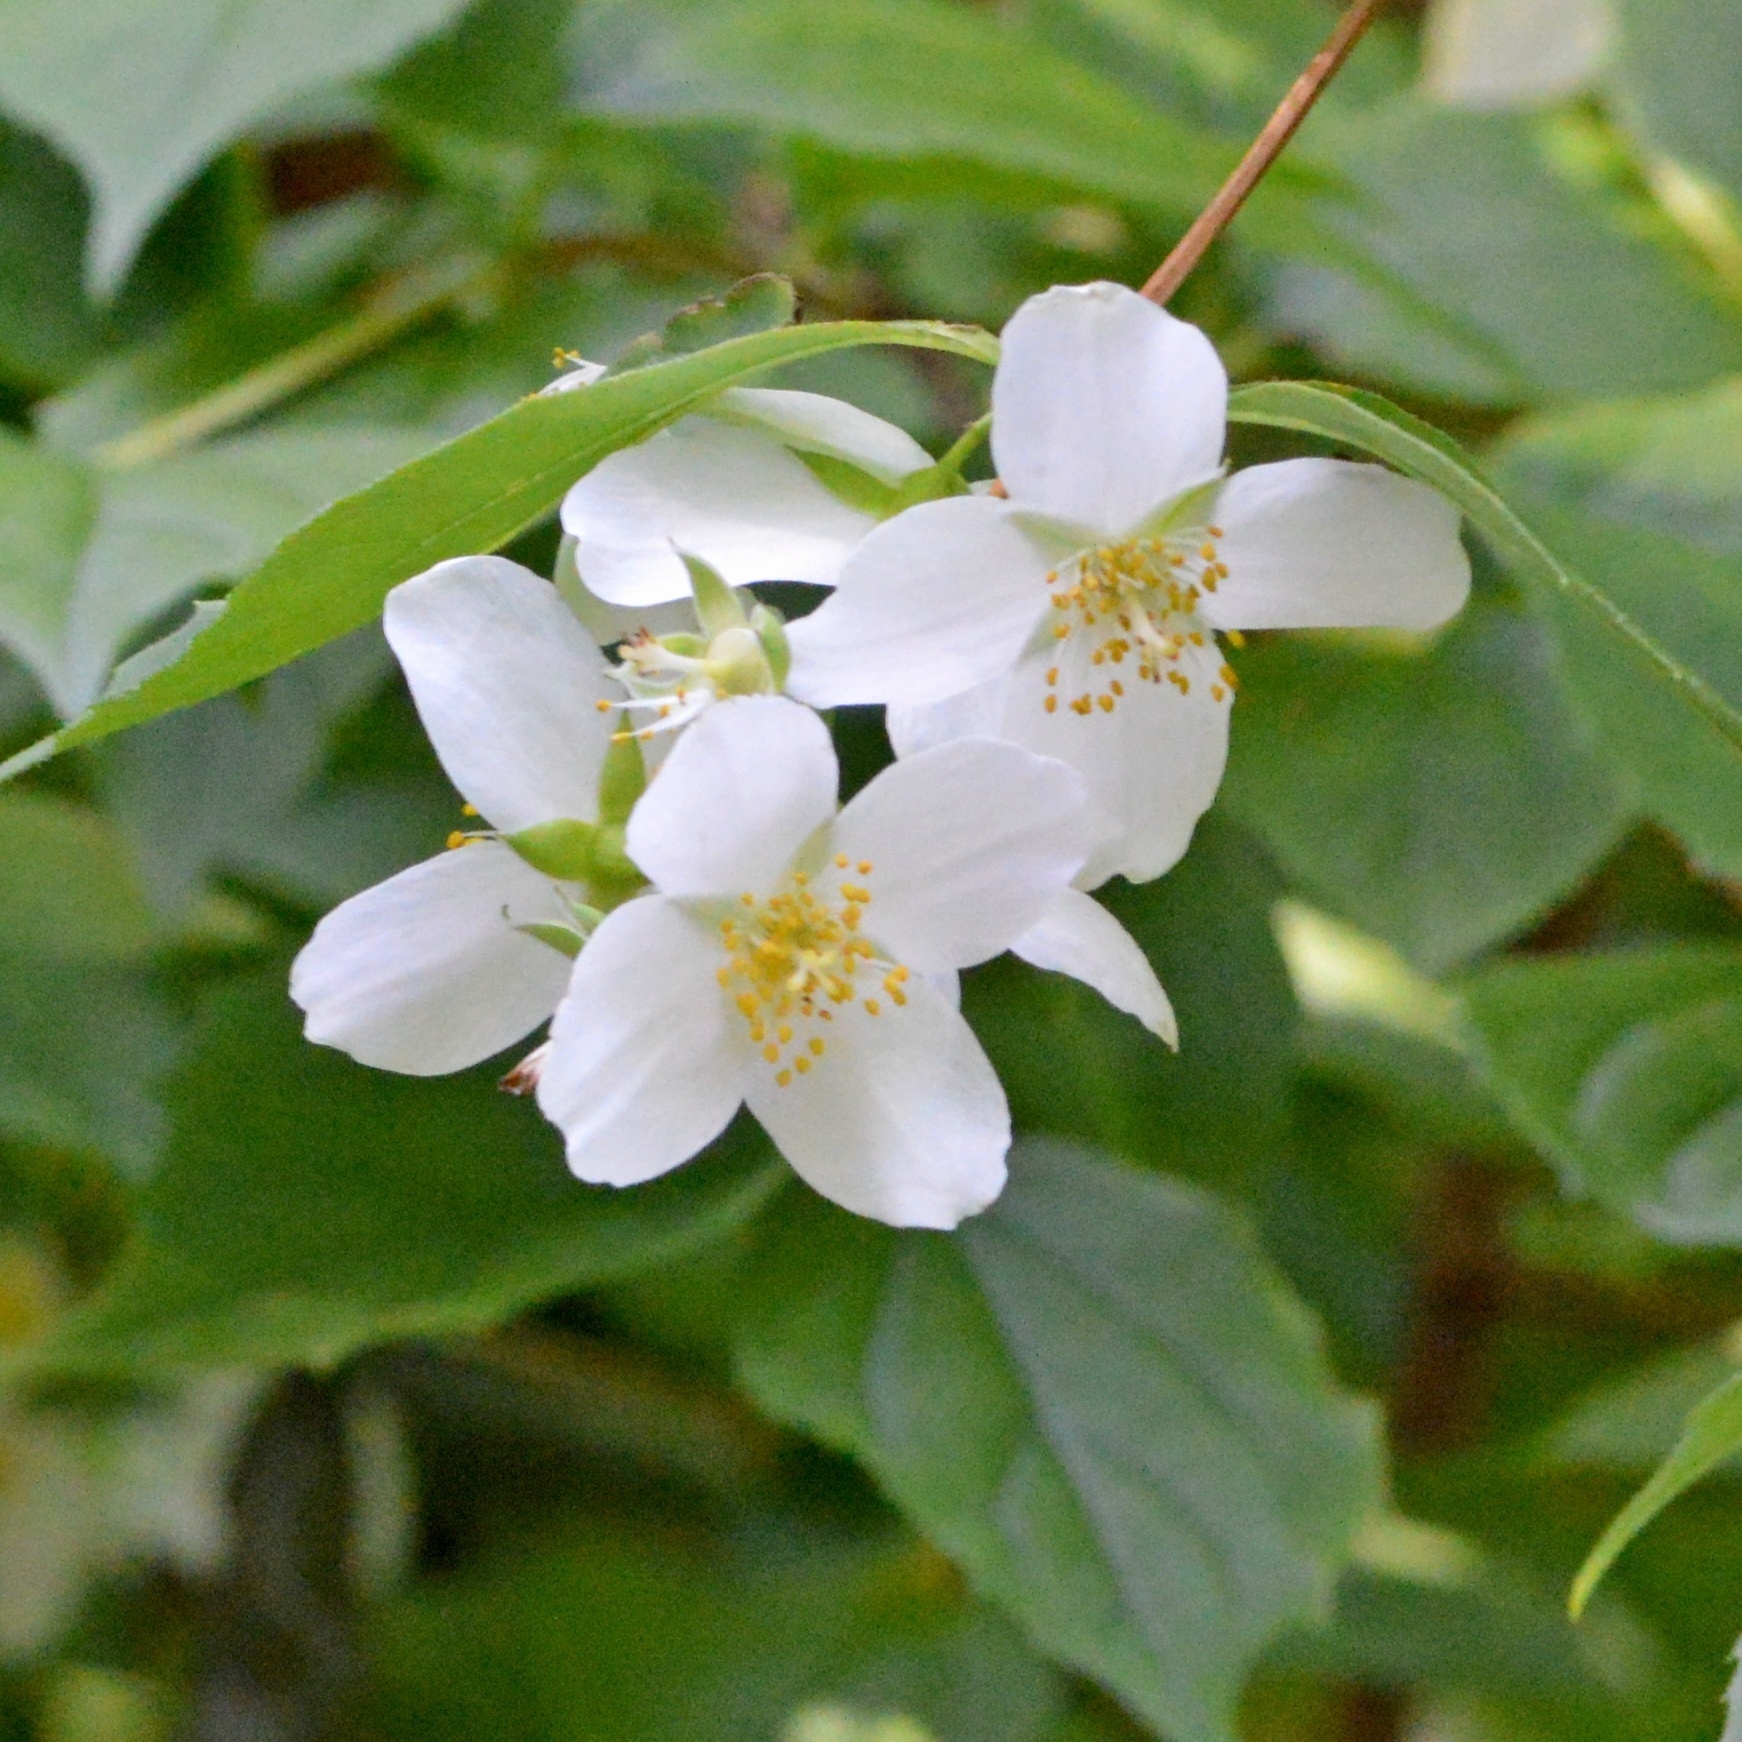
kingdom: Plantae
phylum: Tracheophyta
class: Magnoliopsida
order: Cornales
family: Hydrangeaceae
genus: Philadelphus
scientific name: Philadelphus coronarius
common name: Mock orange
